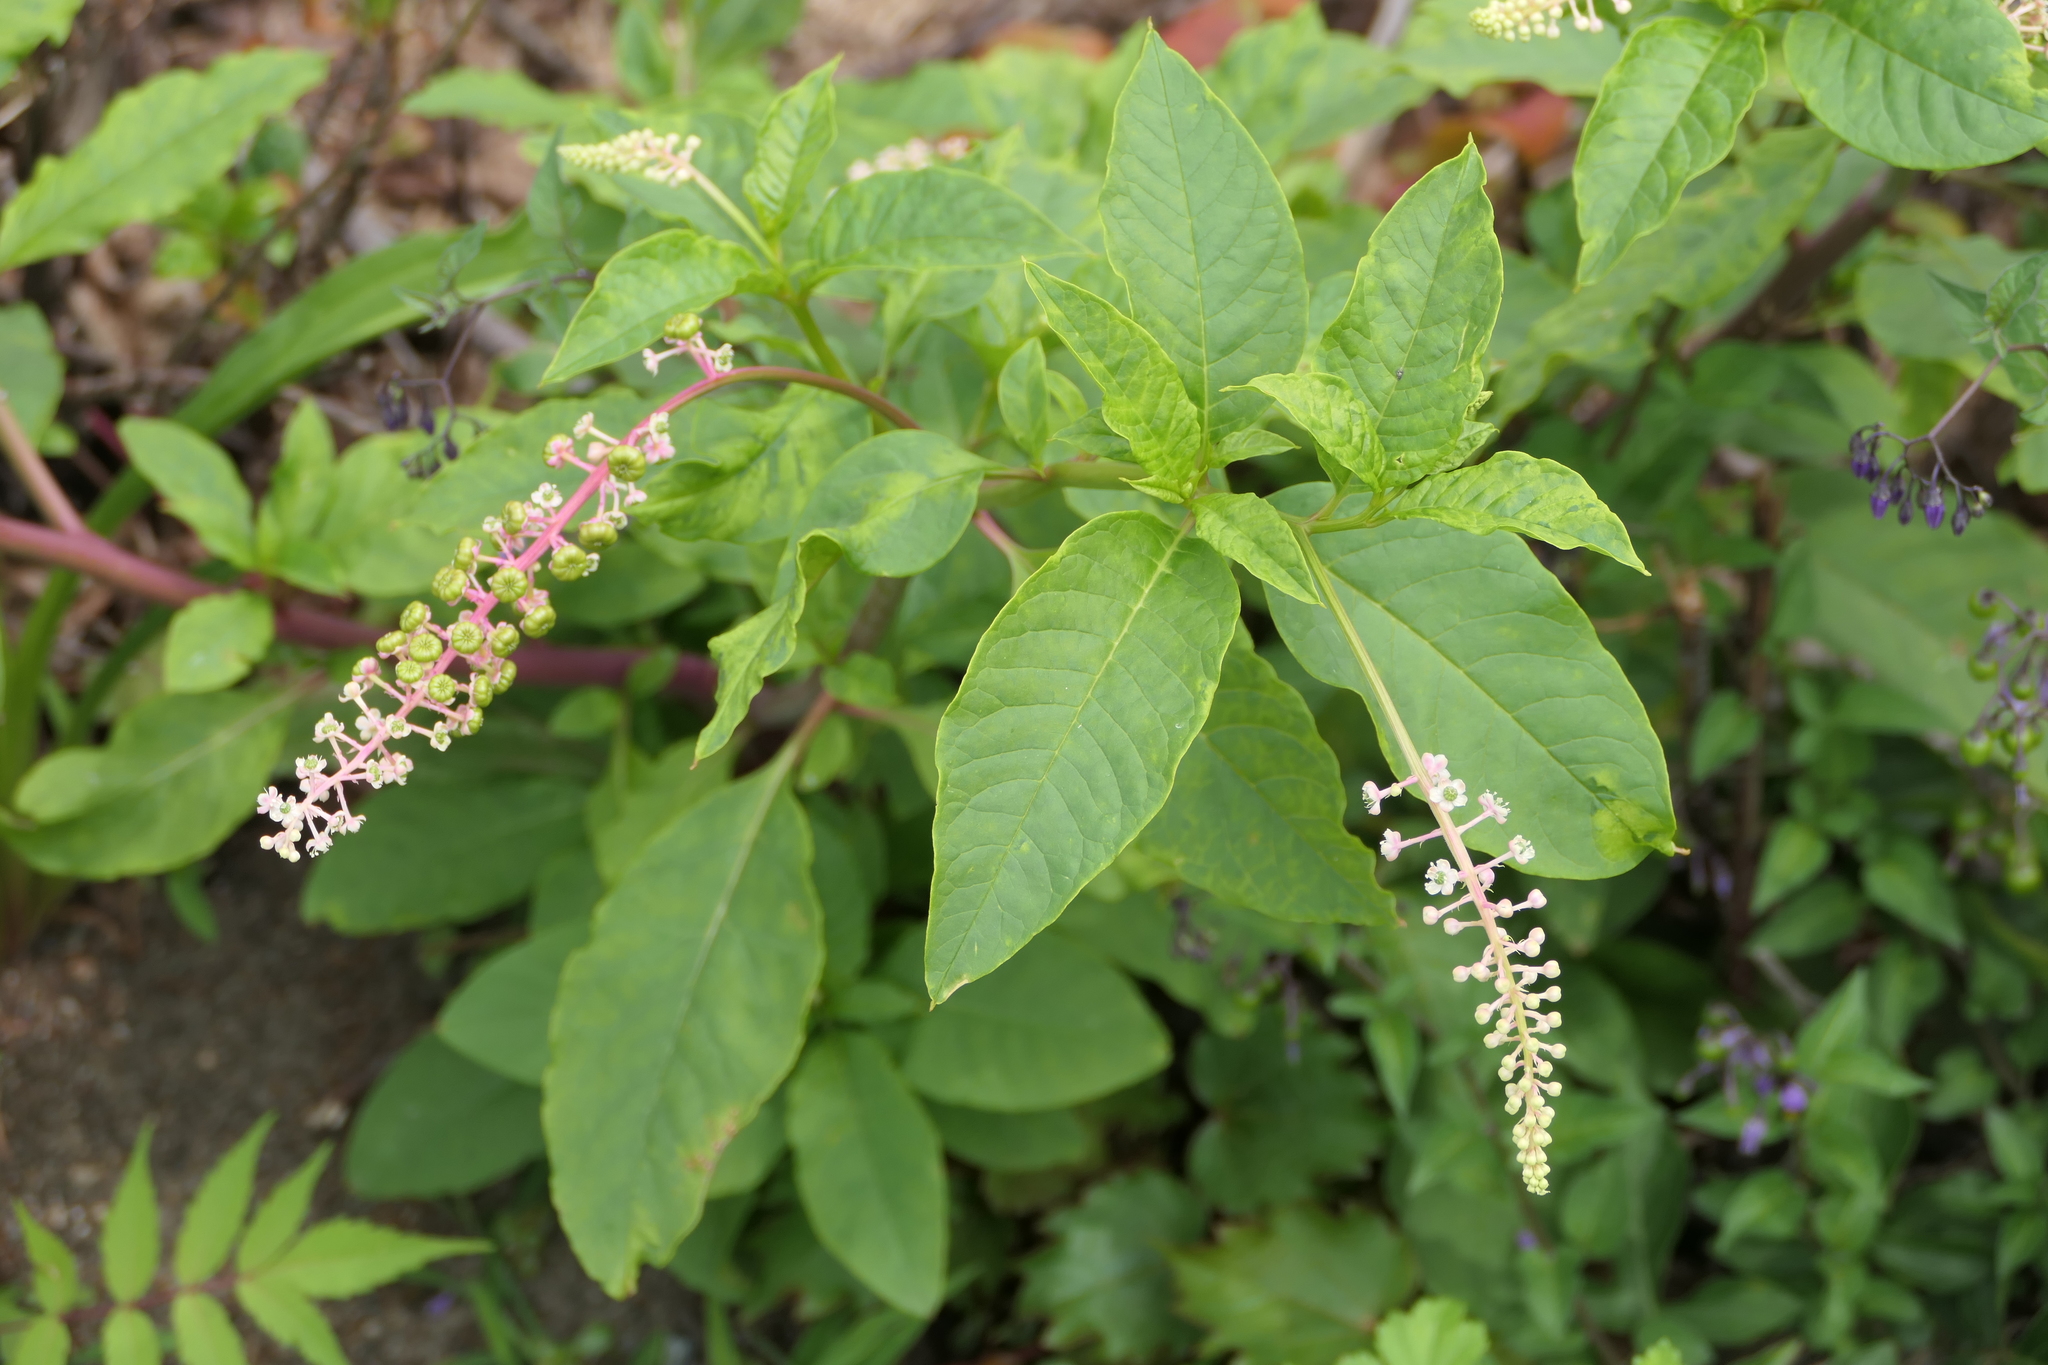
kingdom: Plantae
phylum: Tracheophyta
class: Magnoliopsida
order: Caryophyllales
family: Phytolaccaceae
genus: Phytolacca
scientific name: Phytolacca americana
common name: American pokeweed
